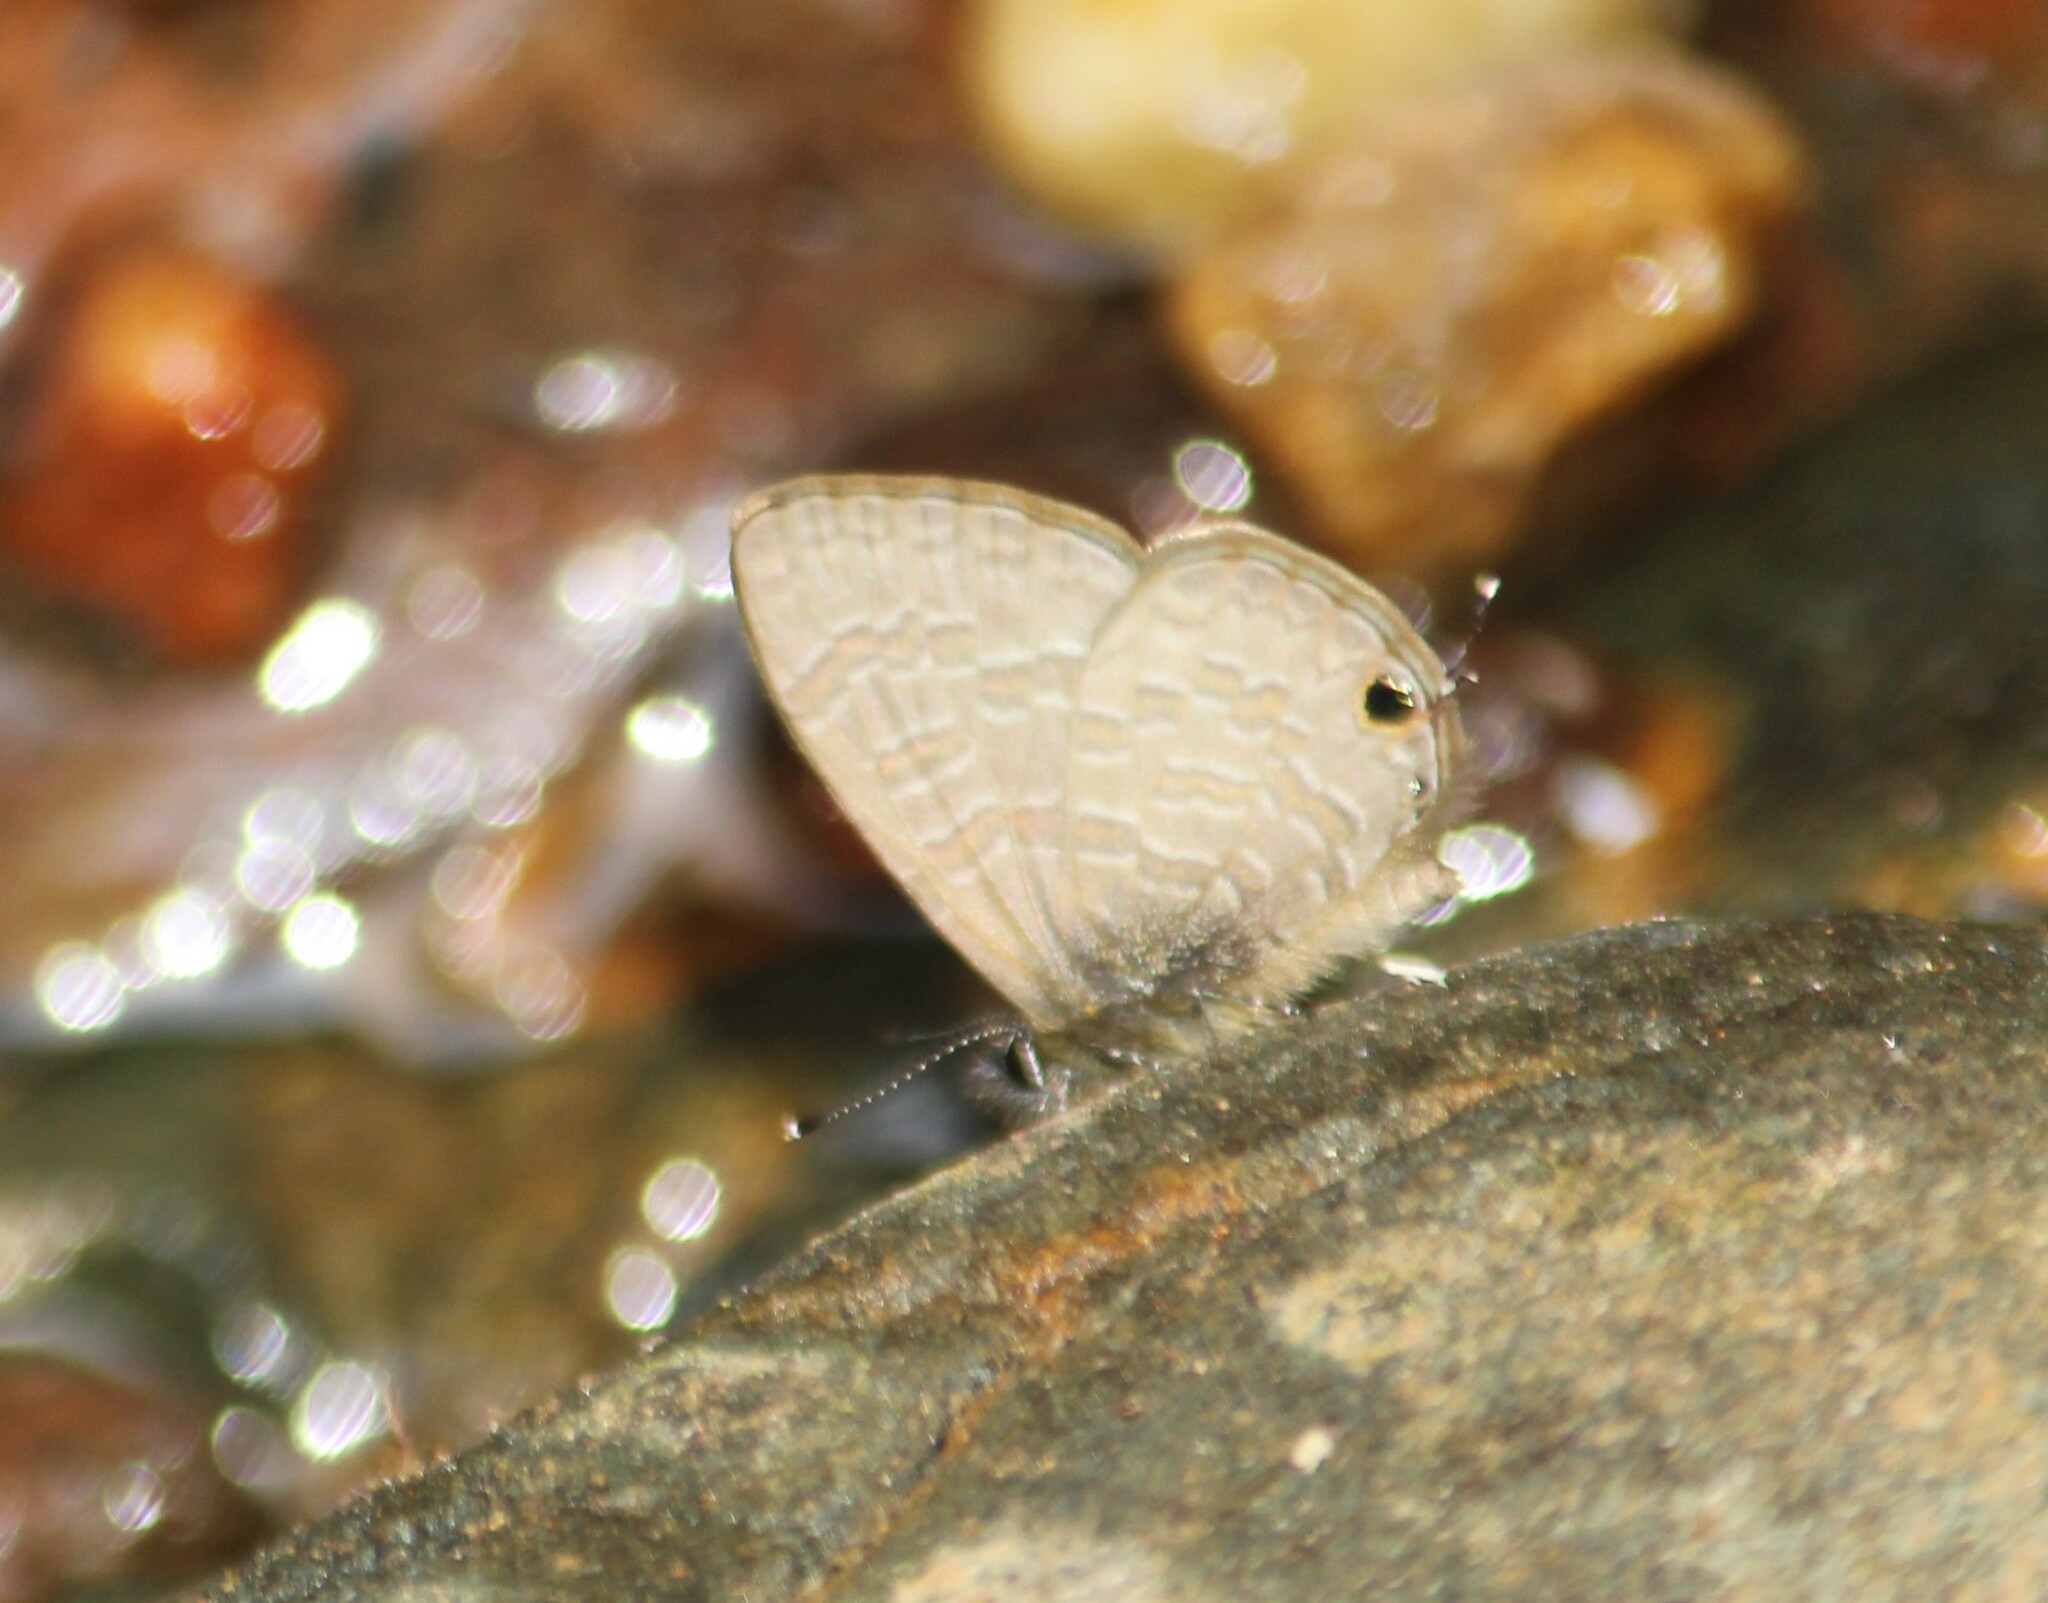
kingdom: Animalia
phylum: Arthropoda
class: Insecta
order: Lepidoptera
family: Lycaenidae
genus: Prosotas
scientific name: Prosotas nora
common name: Common line blue
